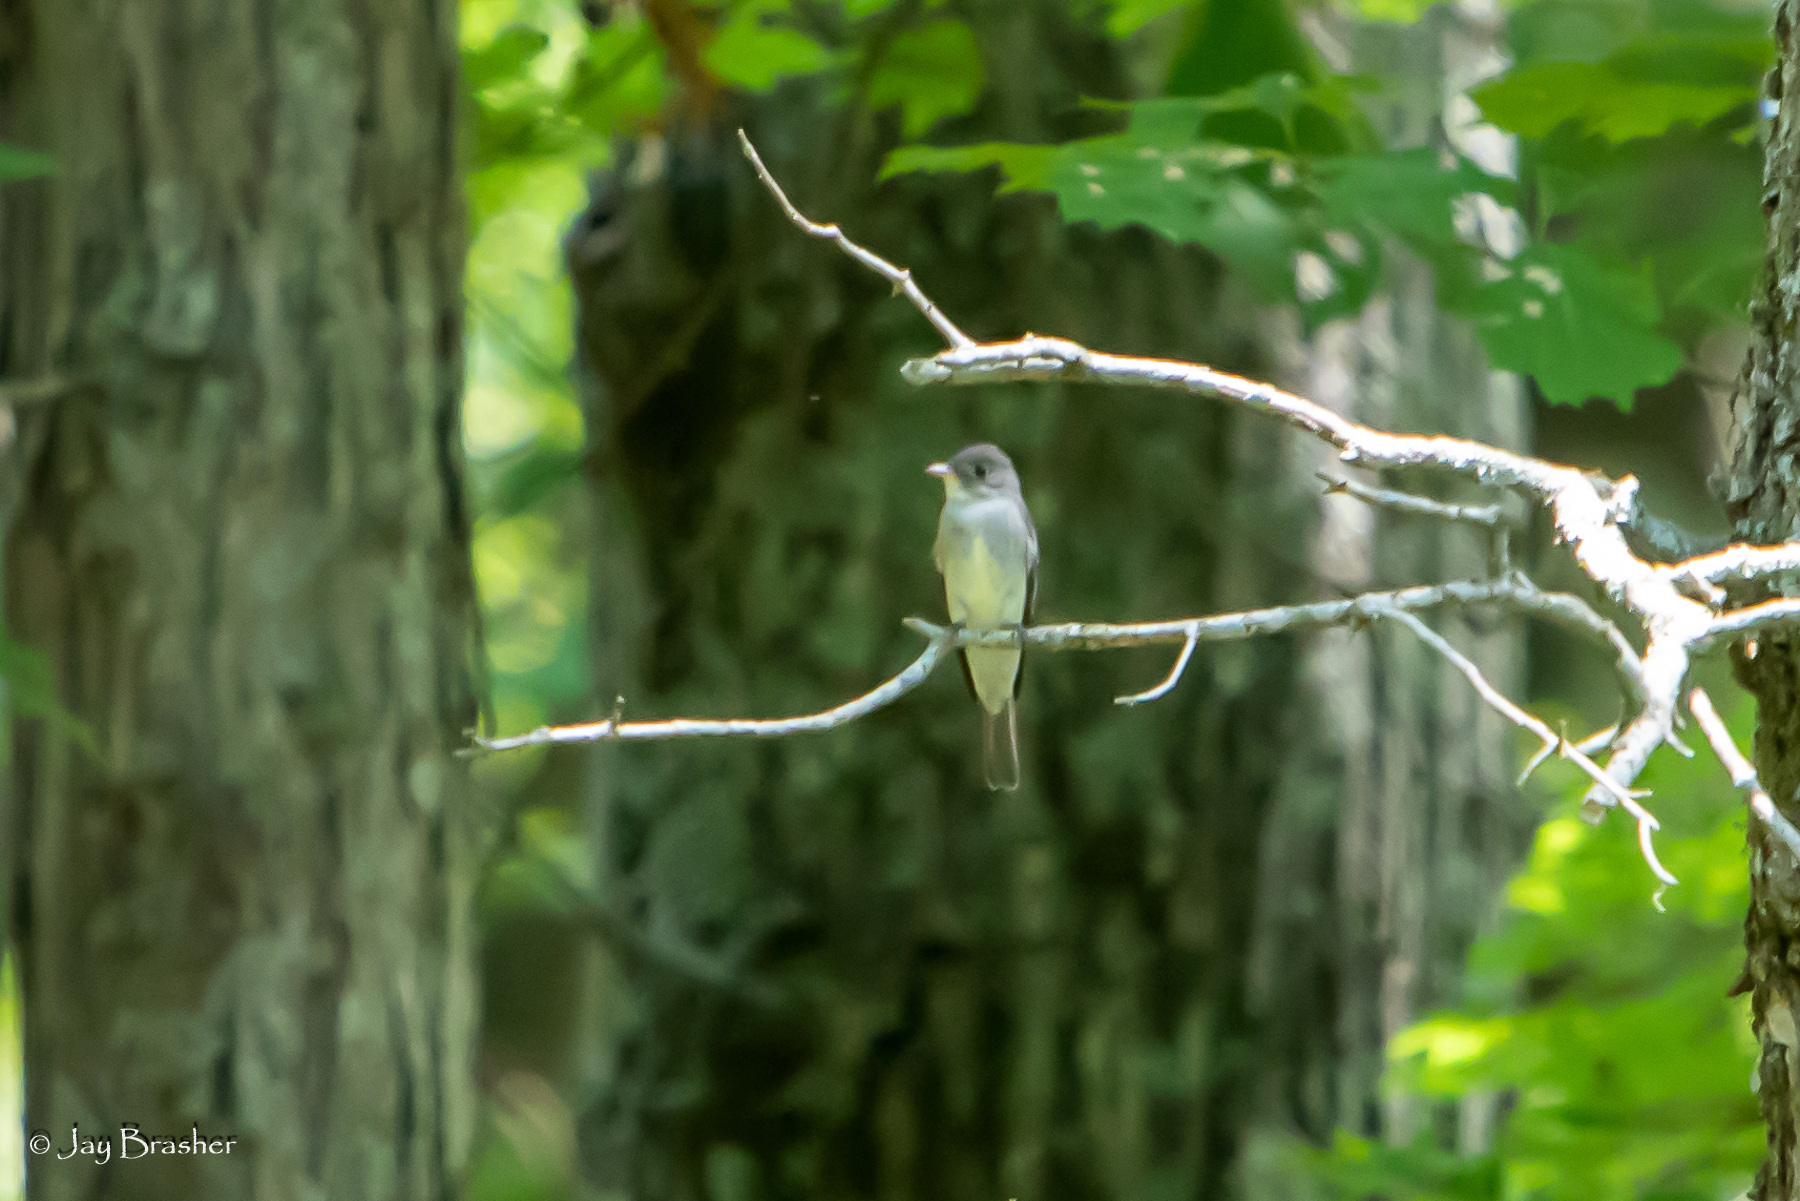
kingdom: Animalia
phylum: Chordata
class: Aves
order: Passeriformes
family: Tyrannidae
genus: Contopus
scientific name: Contopus virens
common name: Eastern wood-pewee
